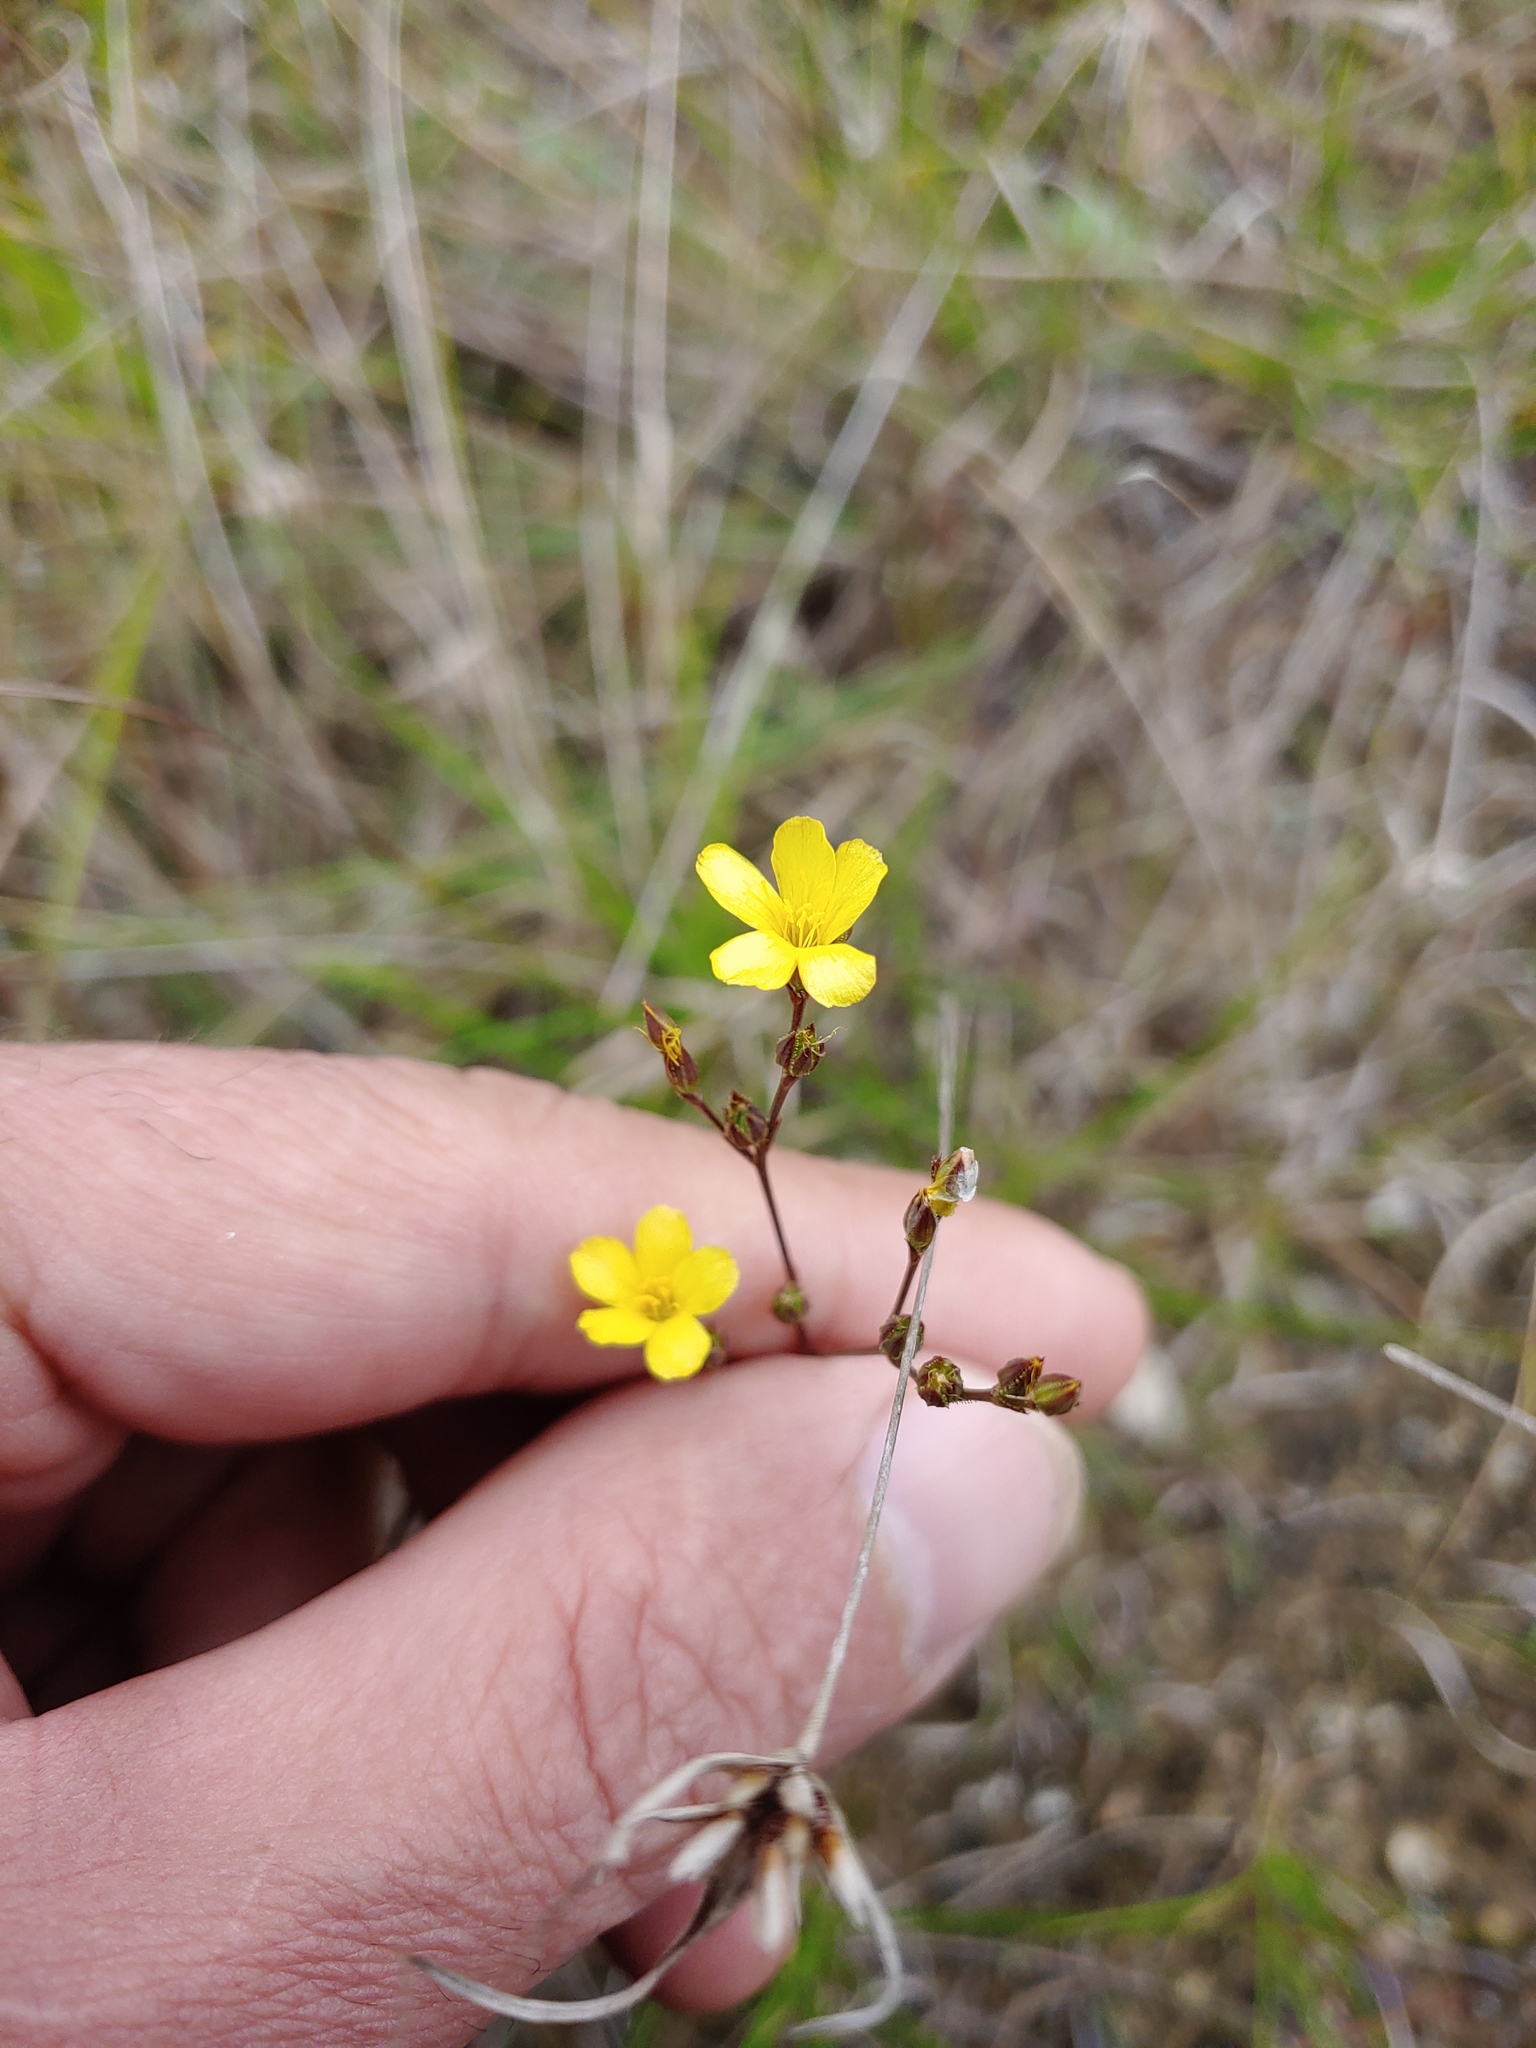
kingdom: Plantae
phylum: Tracheophyta
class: Magnoliopsida
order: Malpighiales
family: Linaceae
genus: Linum
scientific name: Linum medium
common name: Stiff yellow flax
